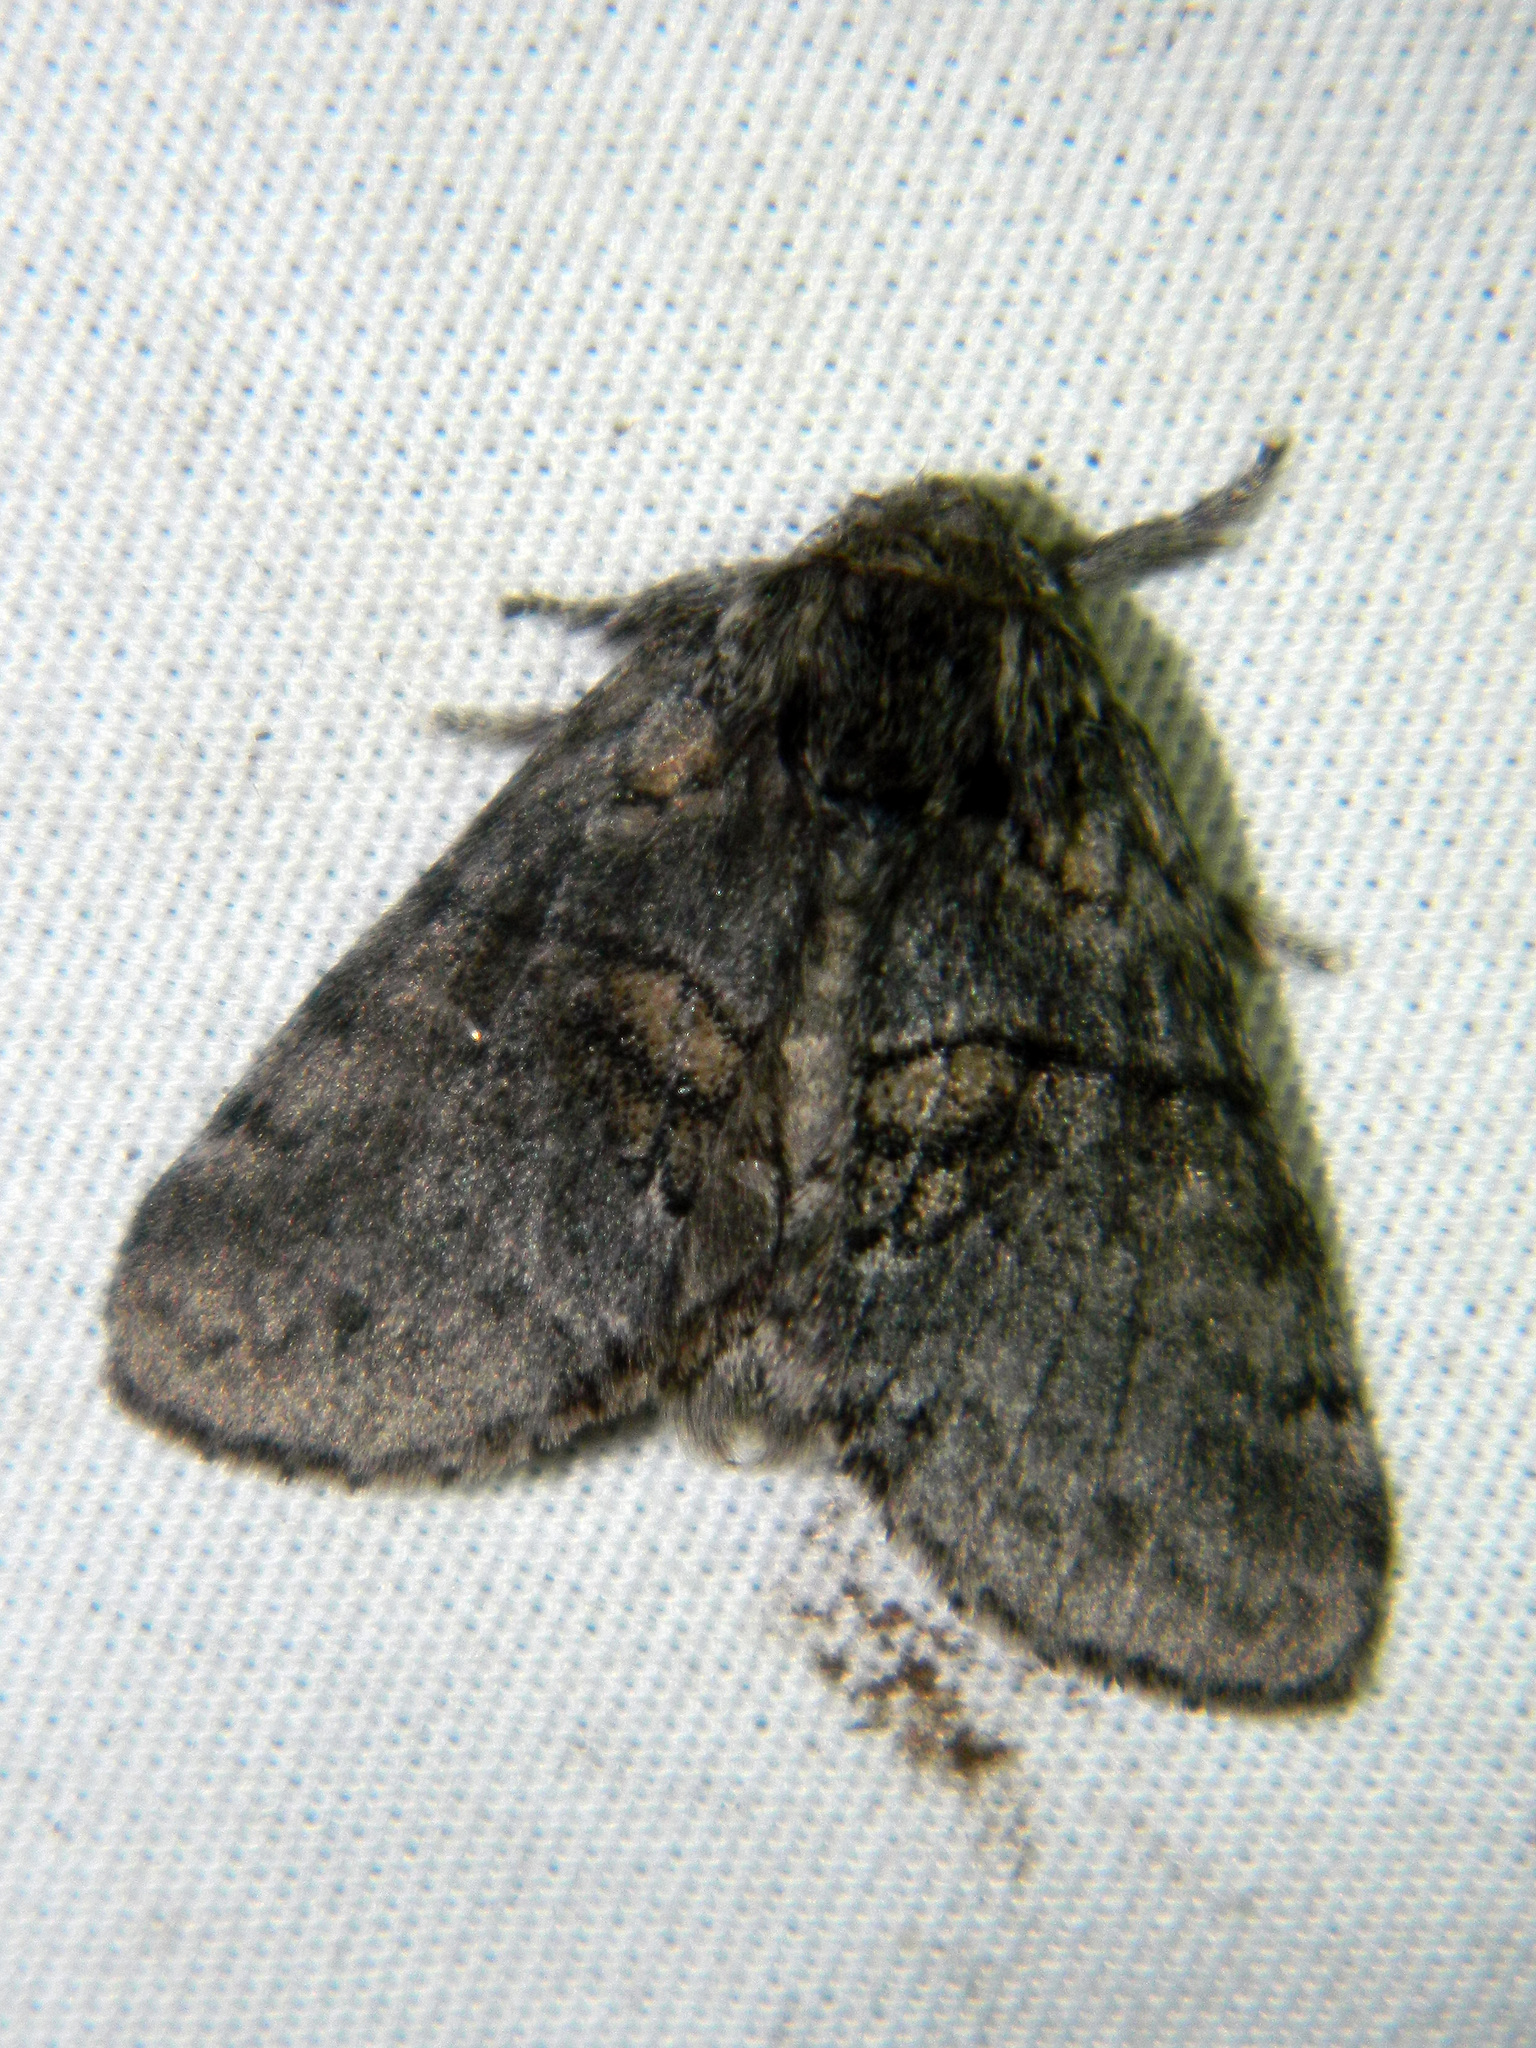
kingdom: Animalia
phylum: Arthropoda
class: Insecta
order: Lepidoptera
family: Notodontidae
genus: Gluphisia
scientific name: Gluphisia septentrionis
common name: Common gluphisia
